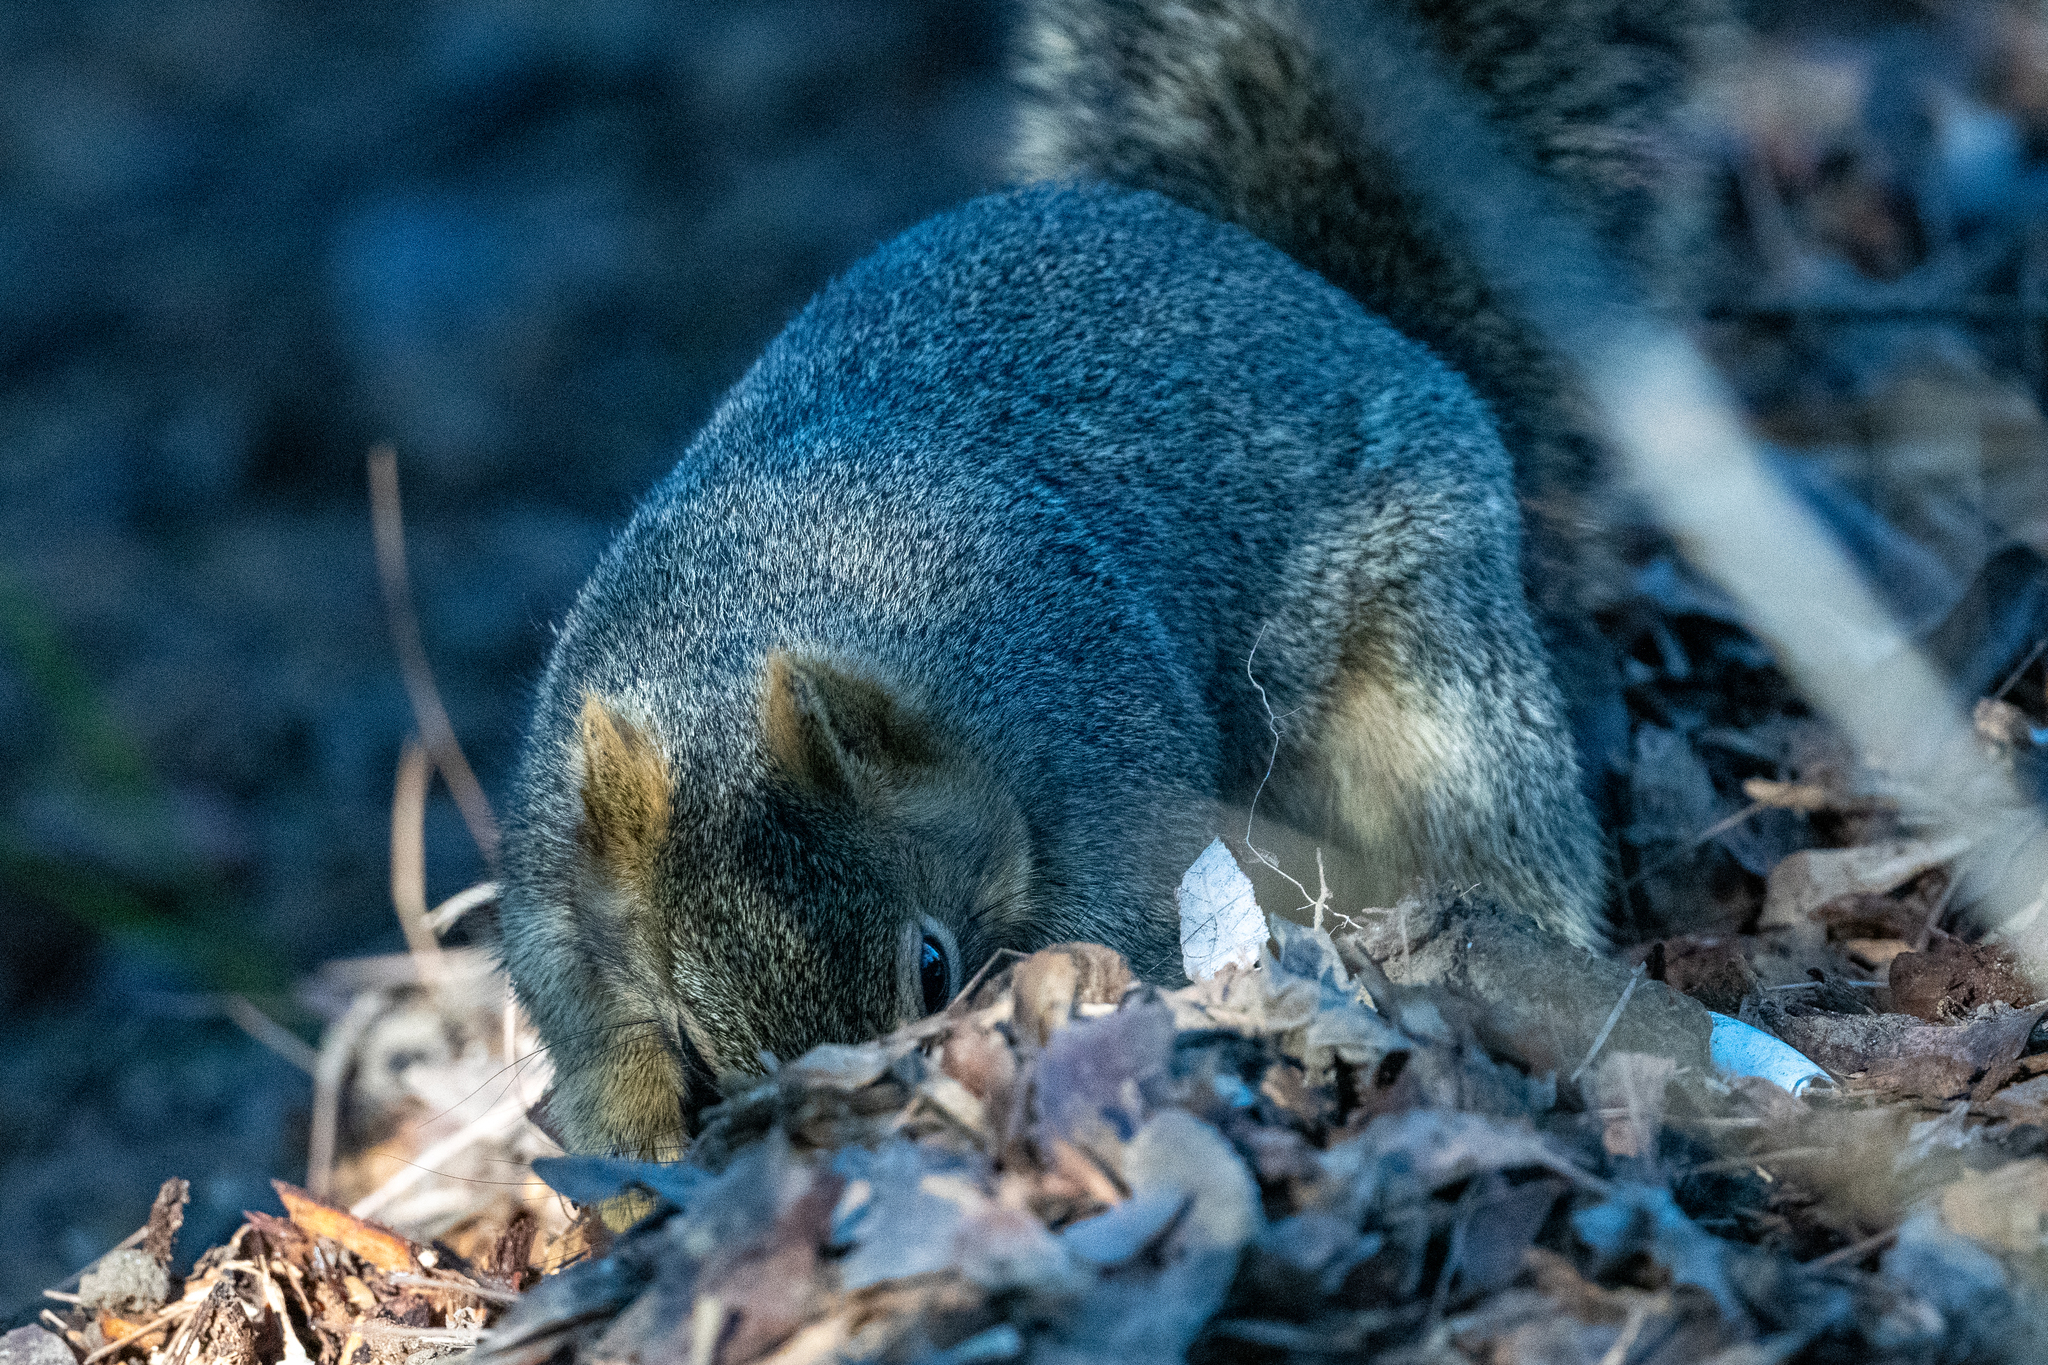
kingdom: Animalia
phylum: Chordata
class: Mammalia
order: Rodentia
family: Sciuridae
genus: Sciurus
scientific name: Sciurus niger
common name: Fox squirrel
